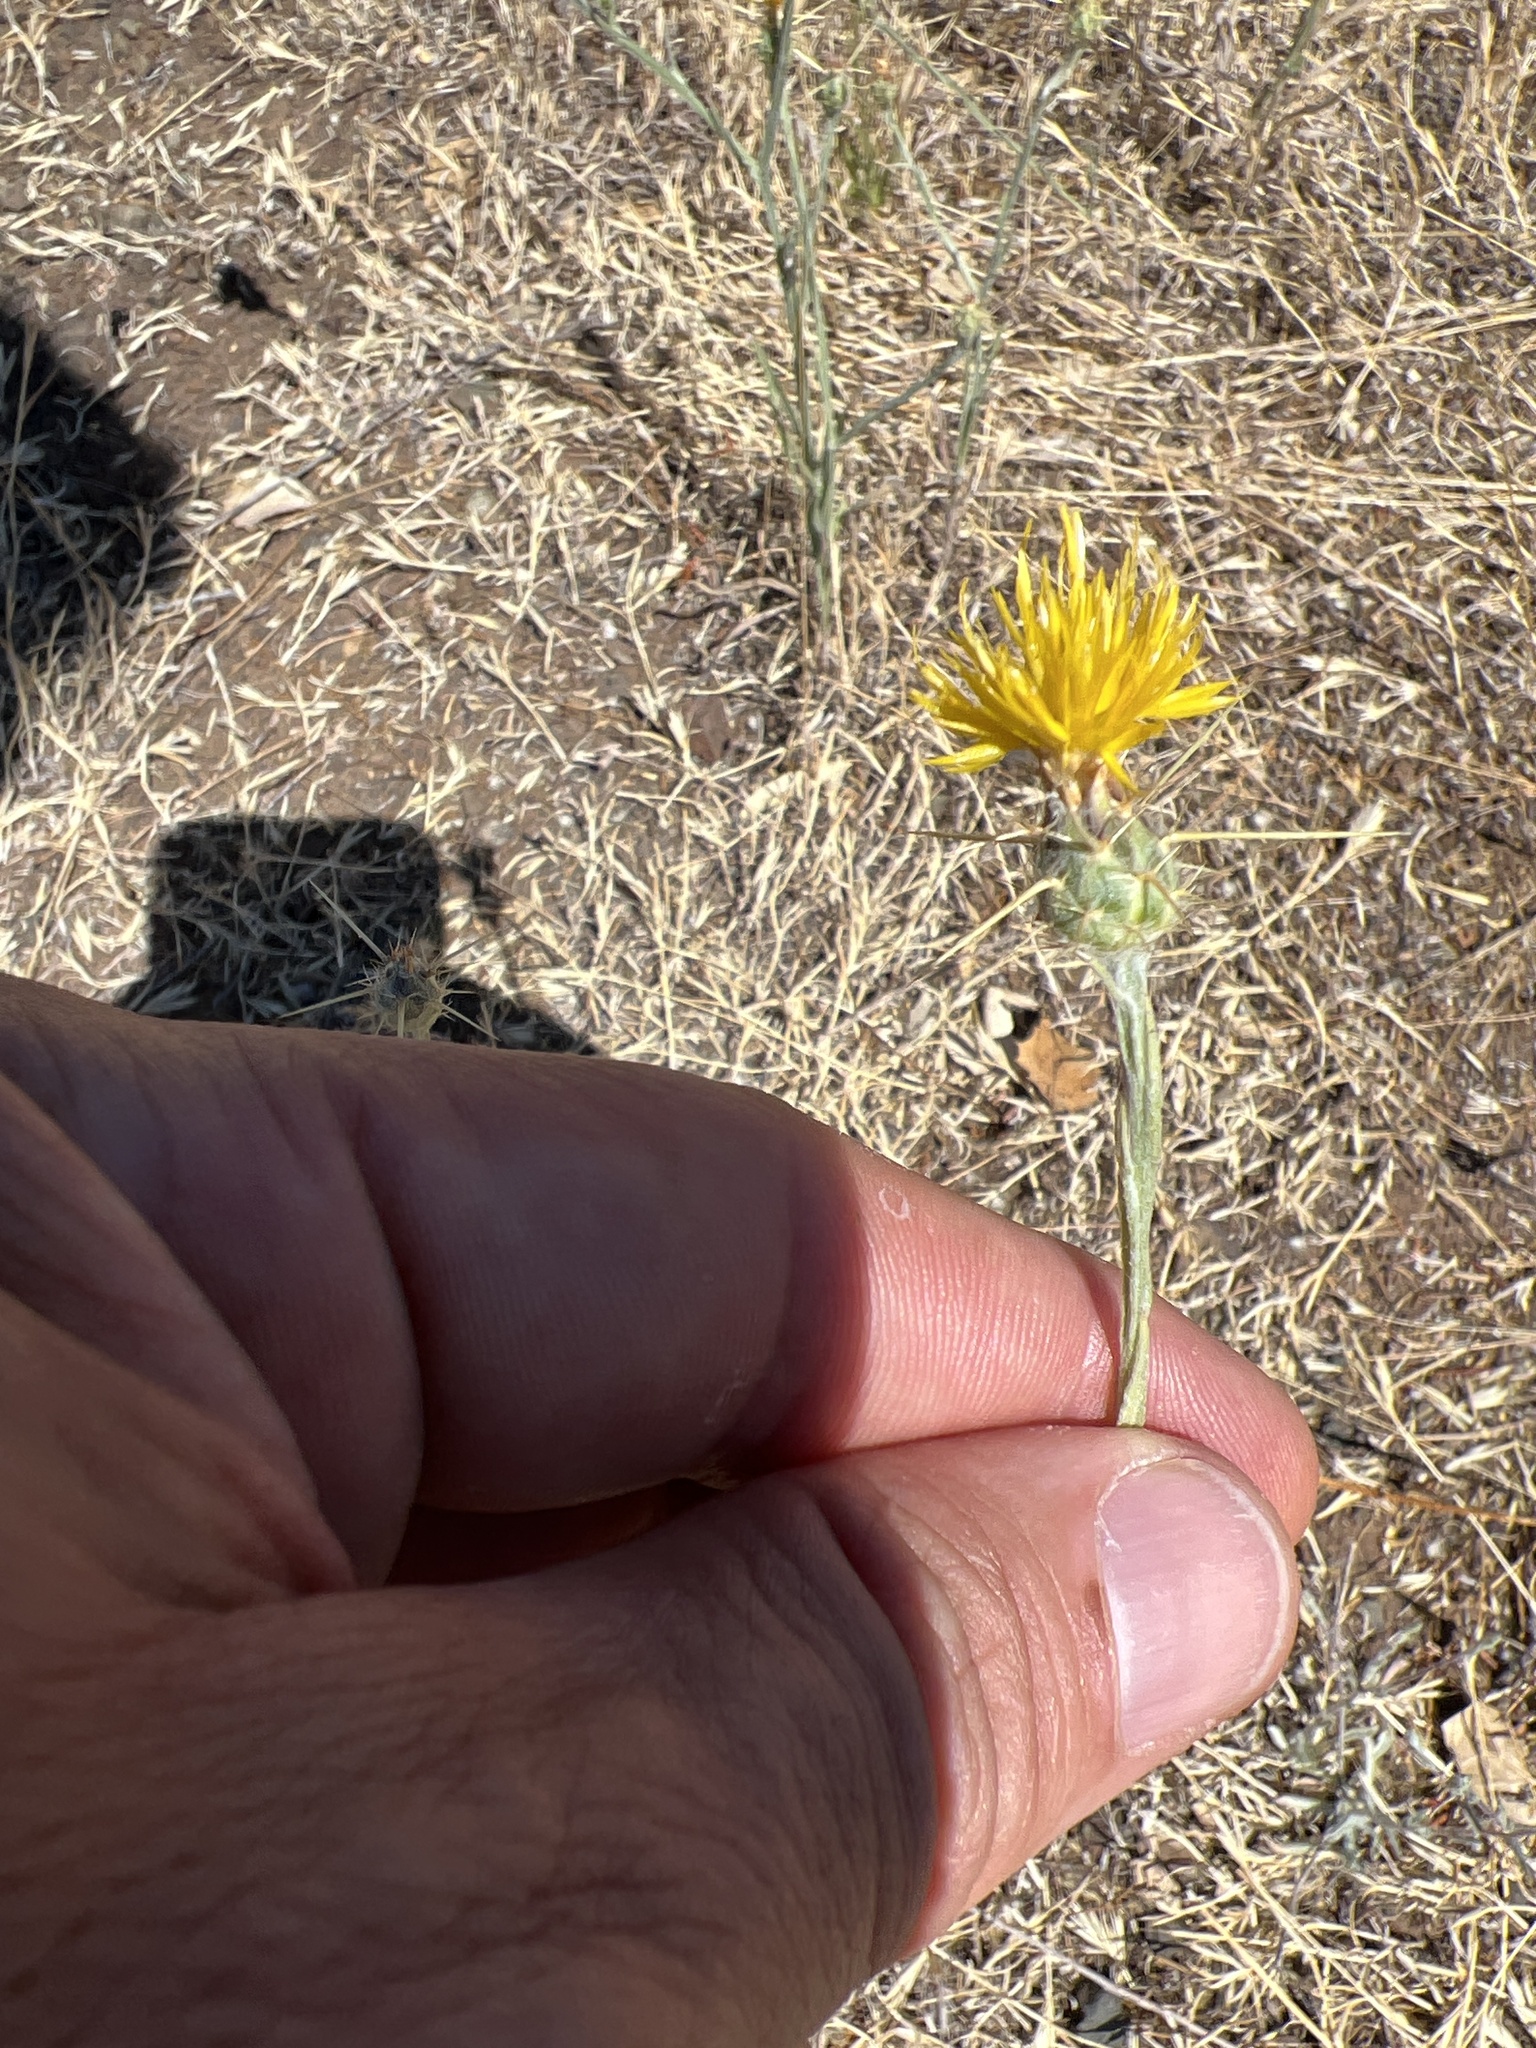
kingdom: Plantae
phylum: Tracheophyta
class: Magnoliopsida
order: Asterales
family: Asteraceae
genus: Centaurea
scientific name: Centaurea solstitialis
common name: Yellow star-thistle
